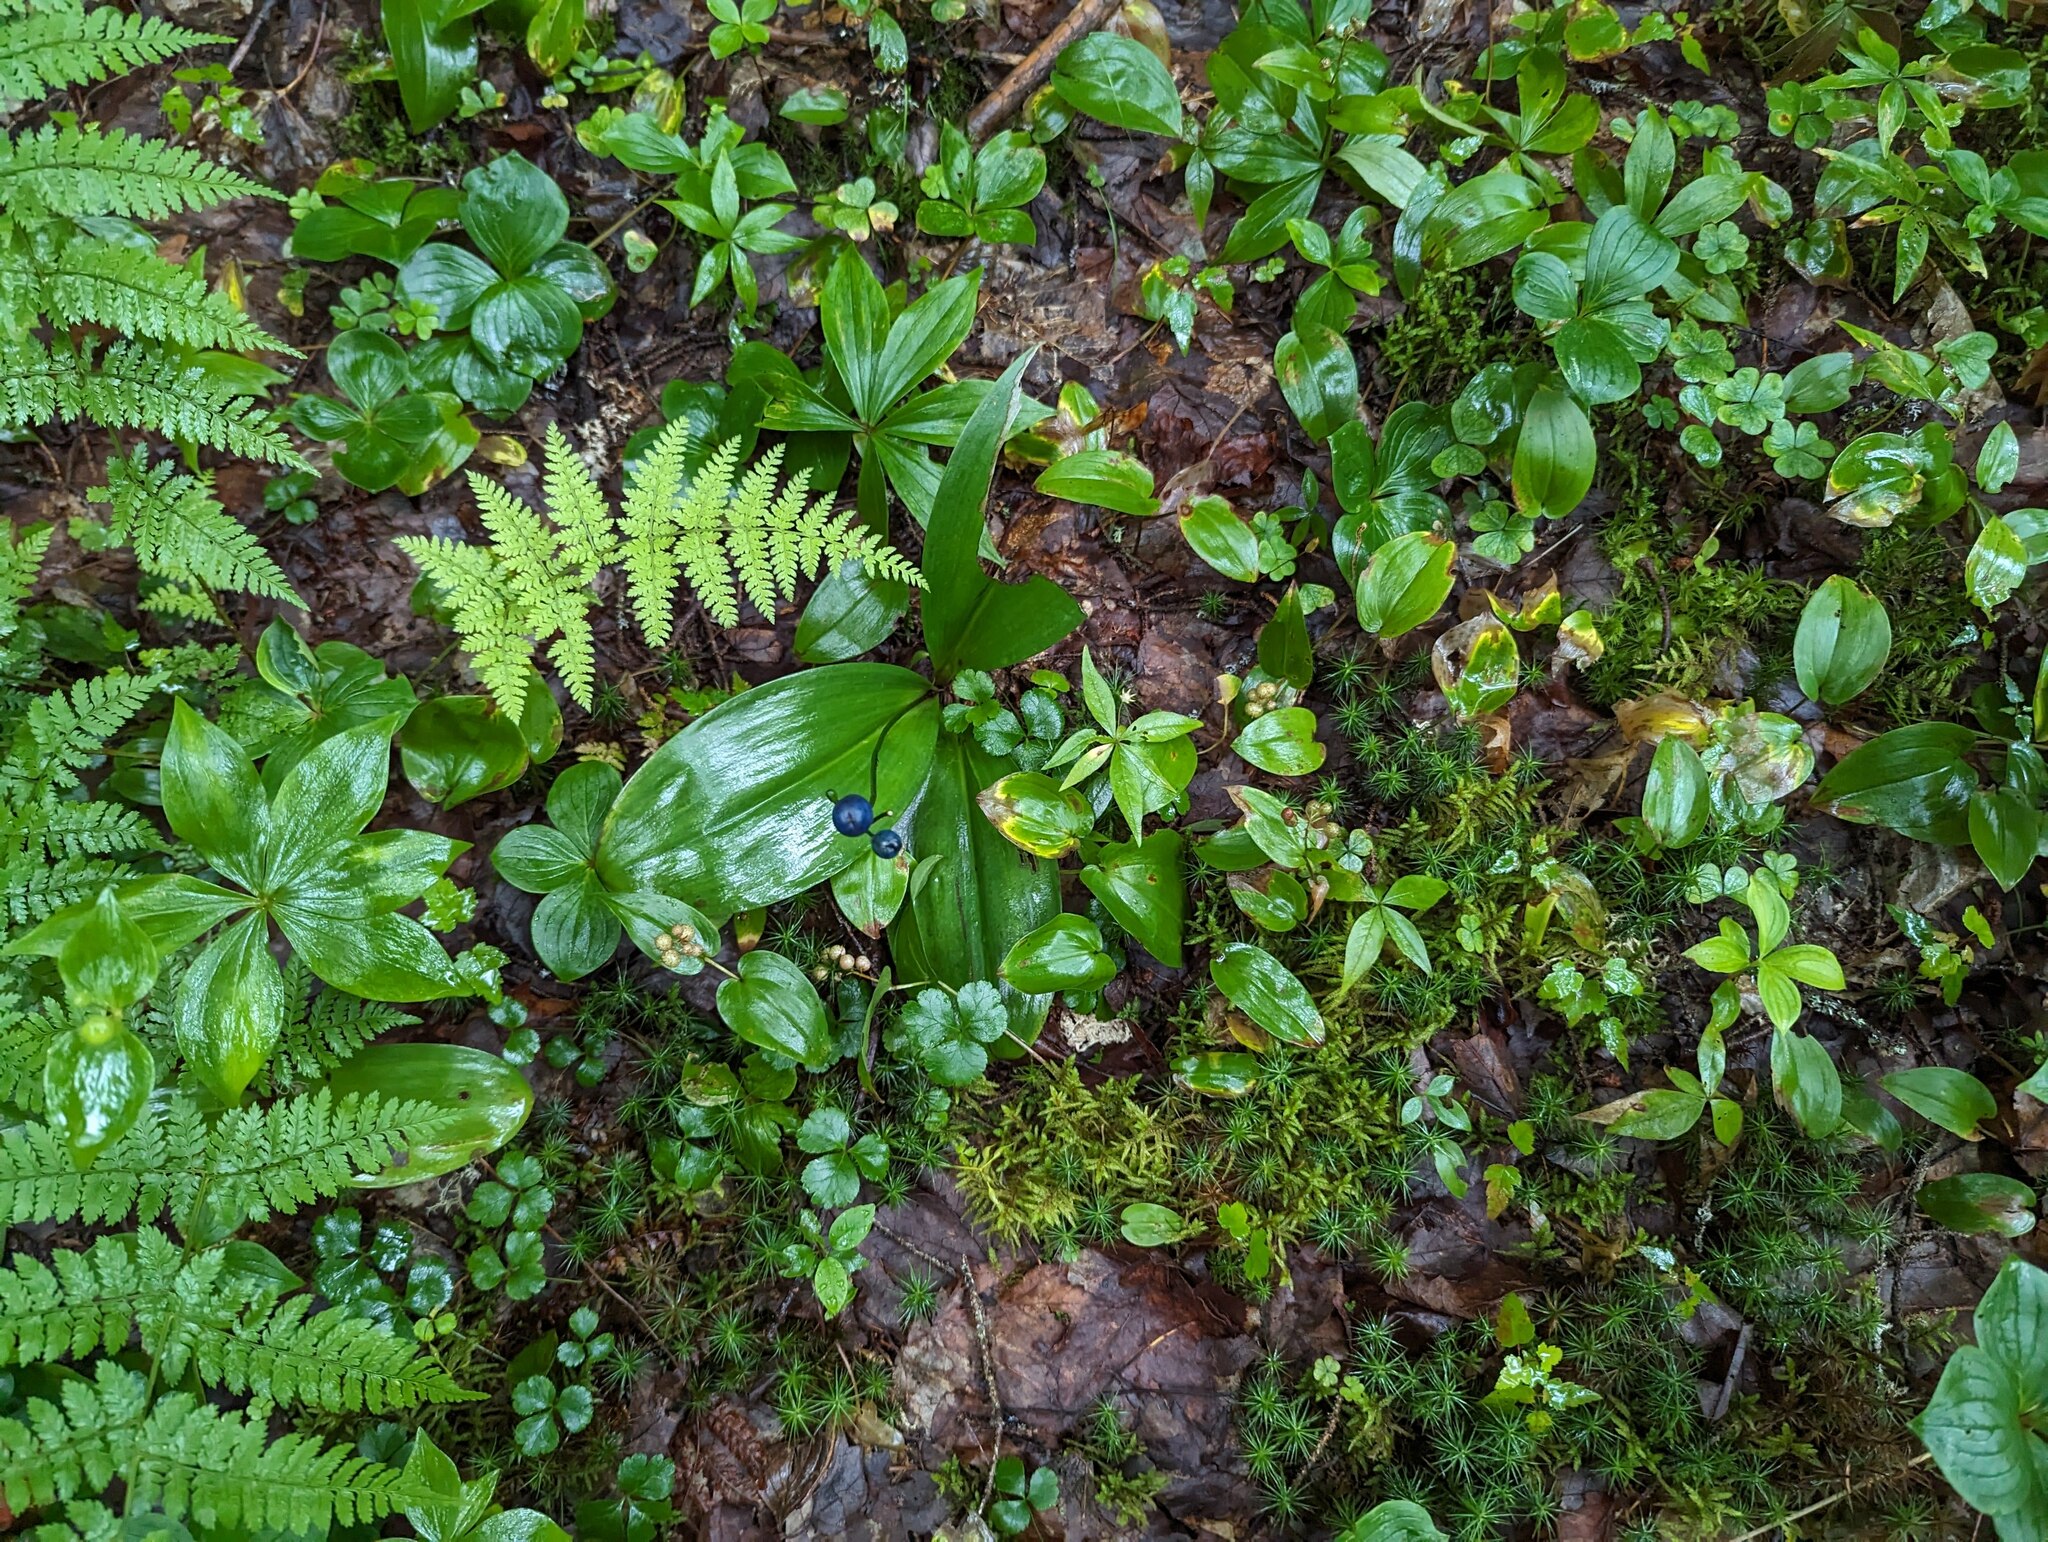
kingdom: Plantae
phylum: Tracheophyta
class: Liliopsida
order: Asparagales
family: Asparagaceae
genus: Maianthemum
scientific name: Maianthemum canadense
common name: False lily-of-the-valley
